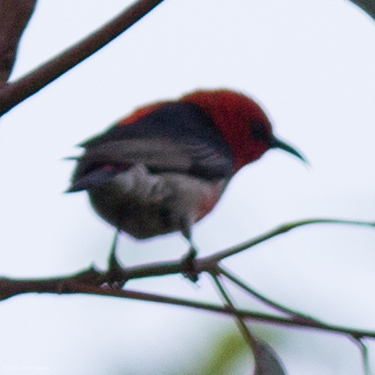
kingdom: Animalia
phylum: Chordata
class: Aves
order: Passeriformes
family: Meliphagidae
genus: Myzomela
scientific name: Myzomela sanguinolenta
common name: Scarlet myzomela
